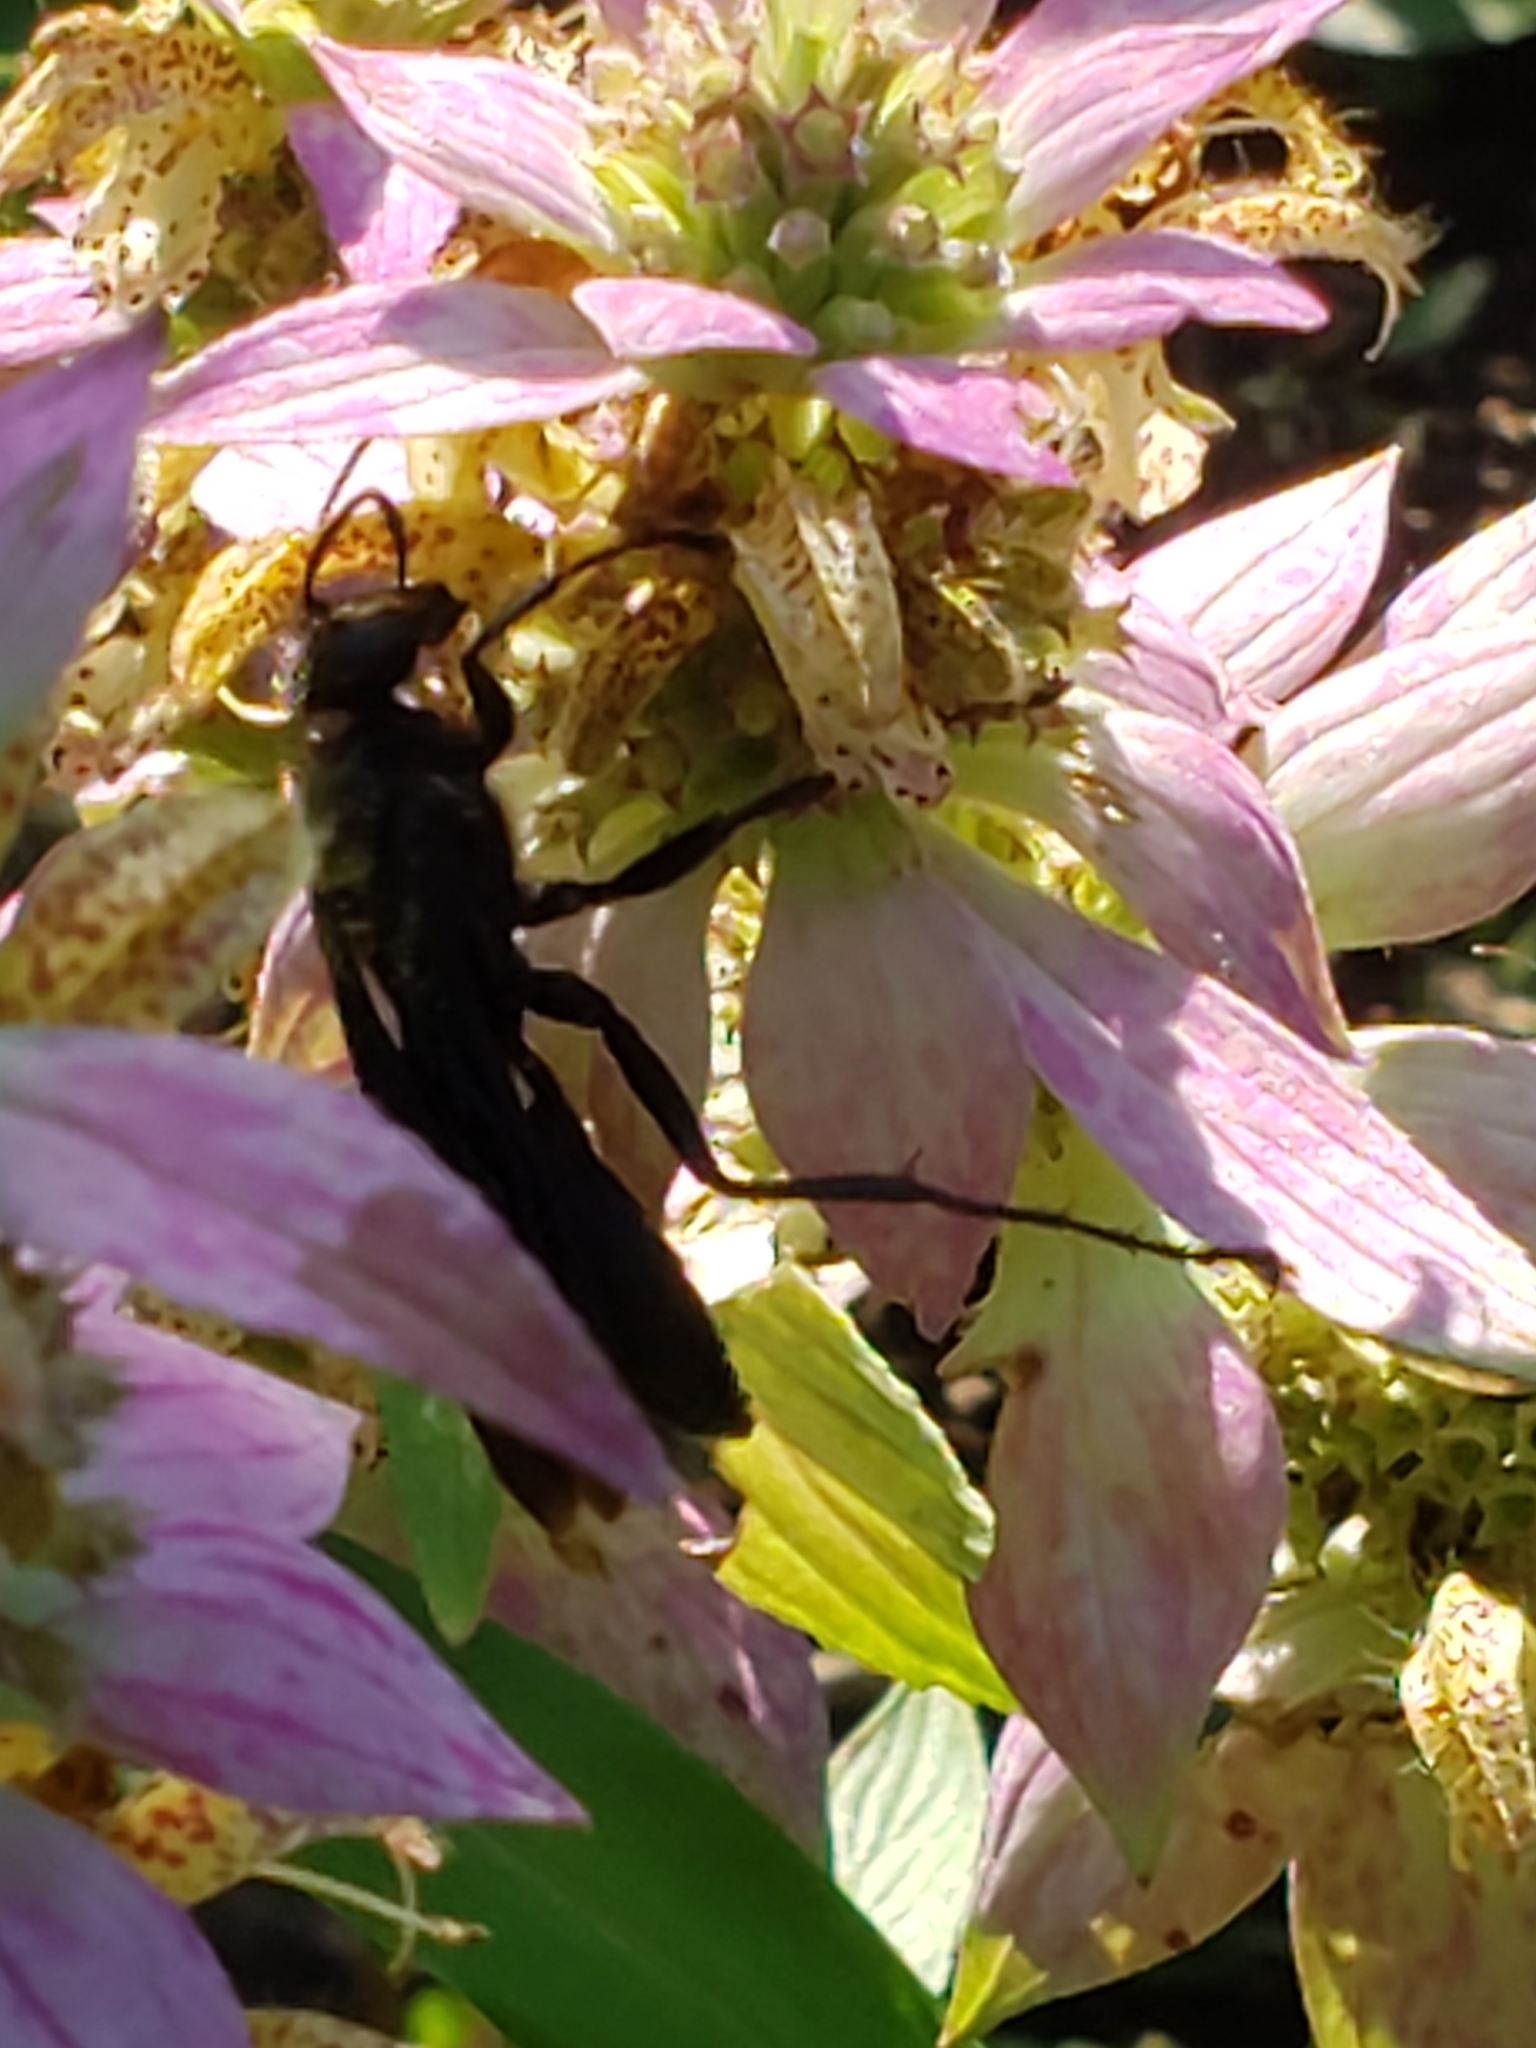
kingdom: Animalia
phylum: Arthropoda
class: Insecta
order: Hymenoptera
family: Sphecidae
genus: Sphex
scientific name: Sphex pensylvanicus
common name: Great black digger wasp
